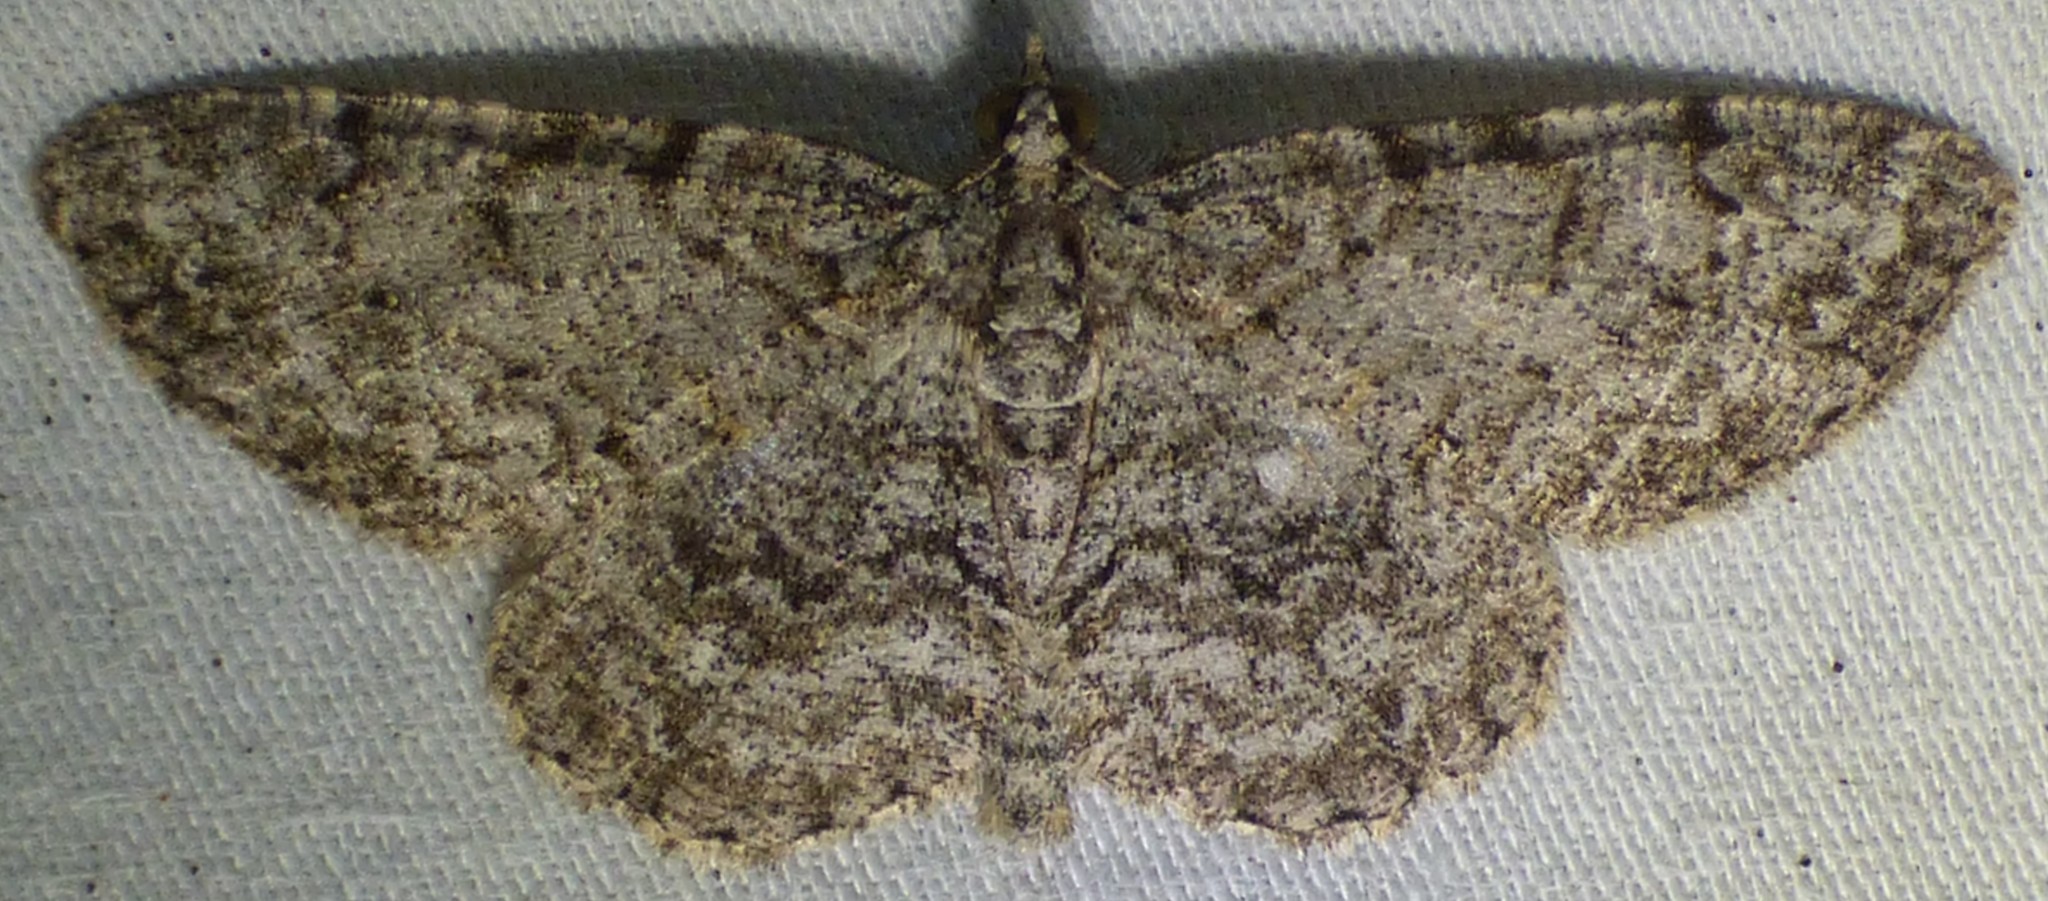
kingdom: Animalia
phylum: Arthropoda
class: Insecta
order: Lepidoptera
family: Geometridae
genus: Protoboarmia
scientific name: Protoboarmia porcelaria
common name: Porcelain gray
